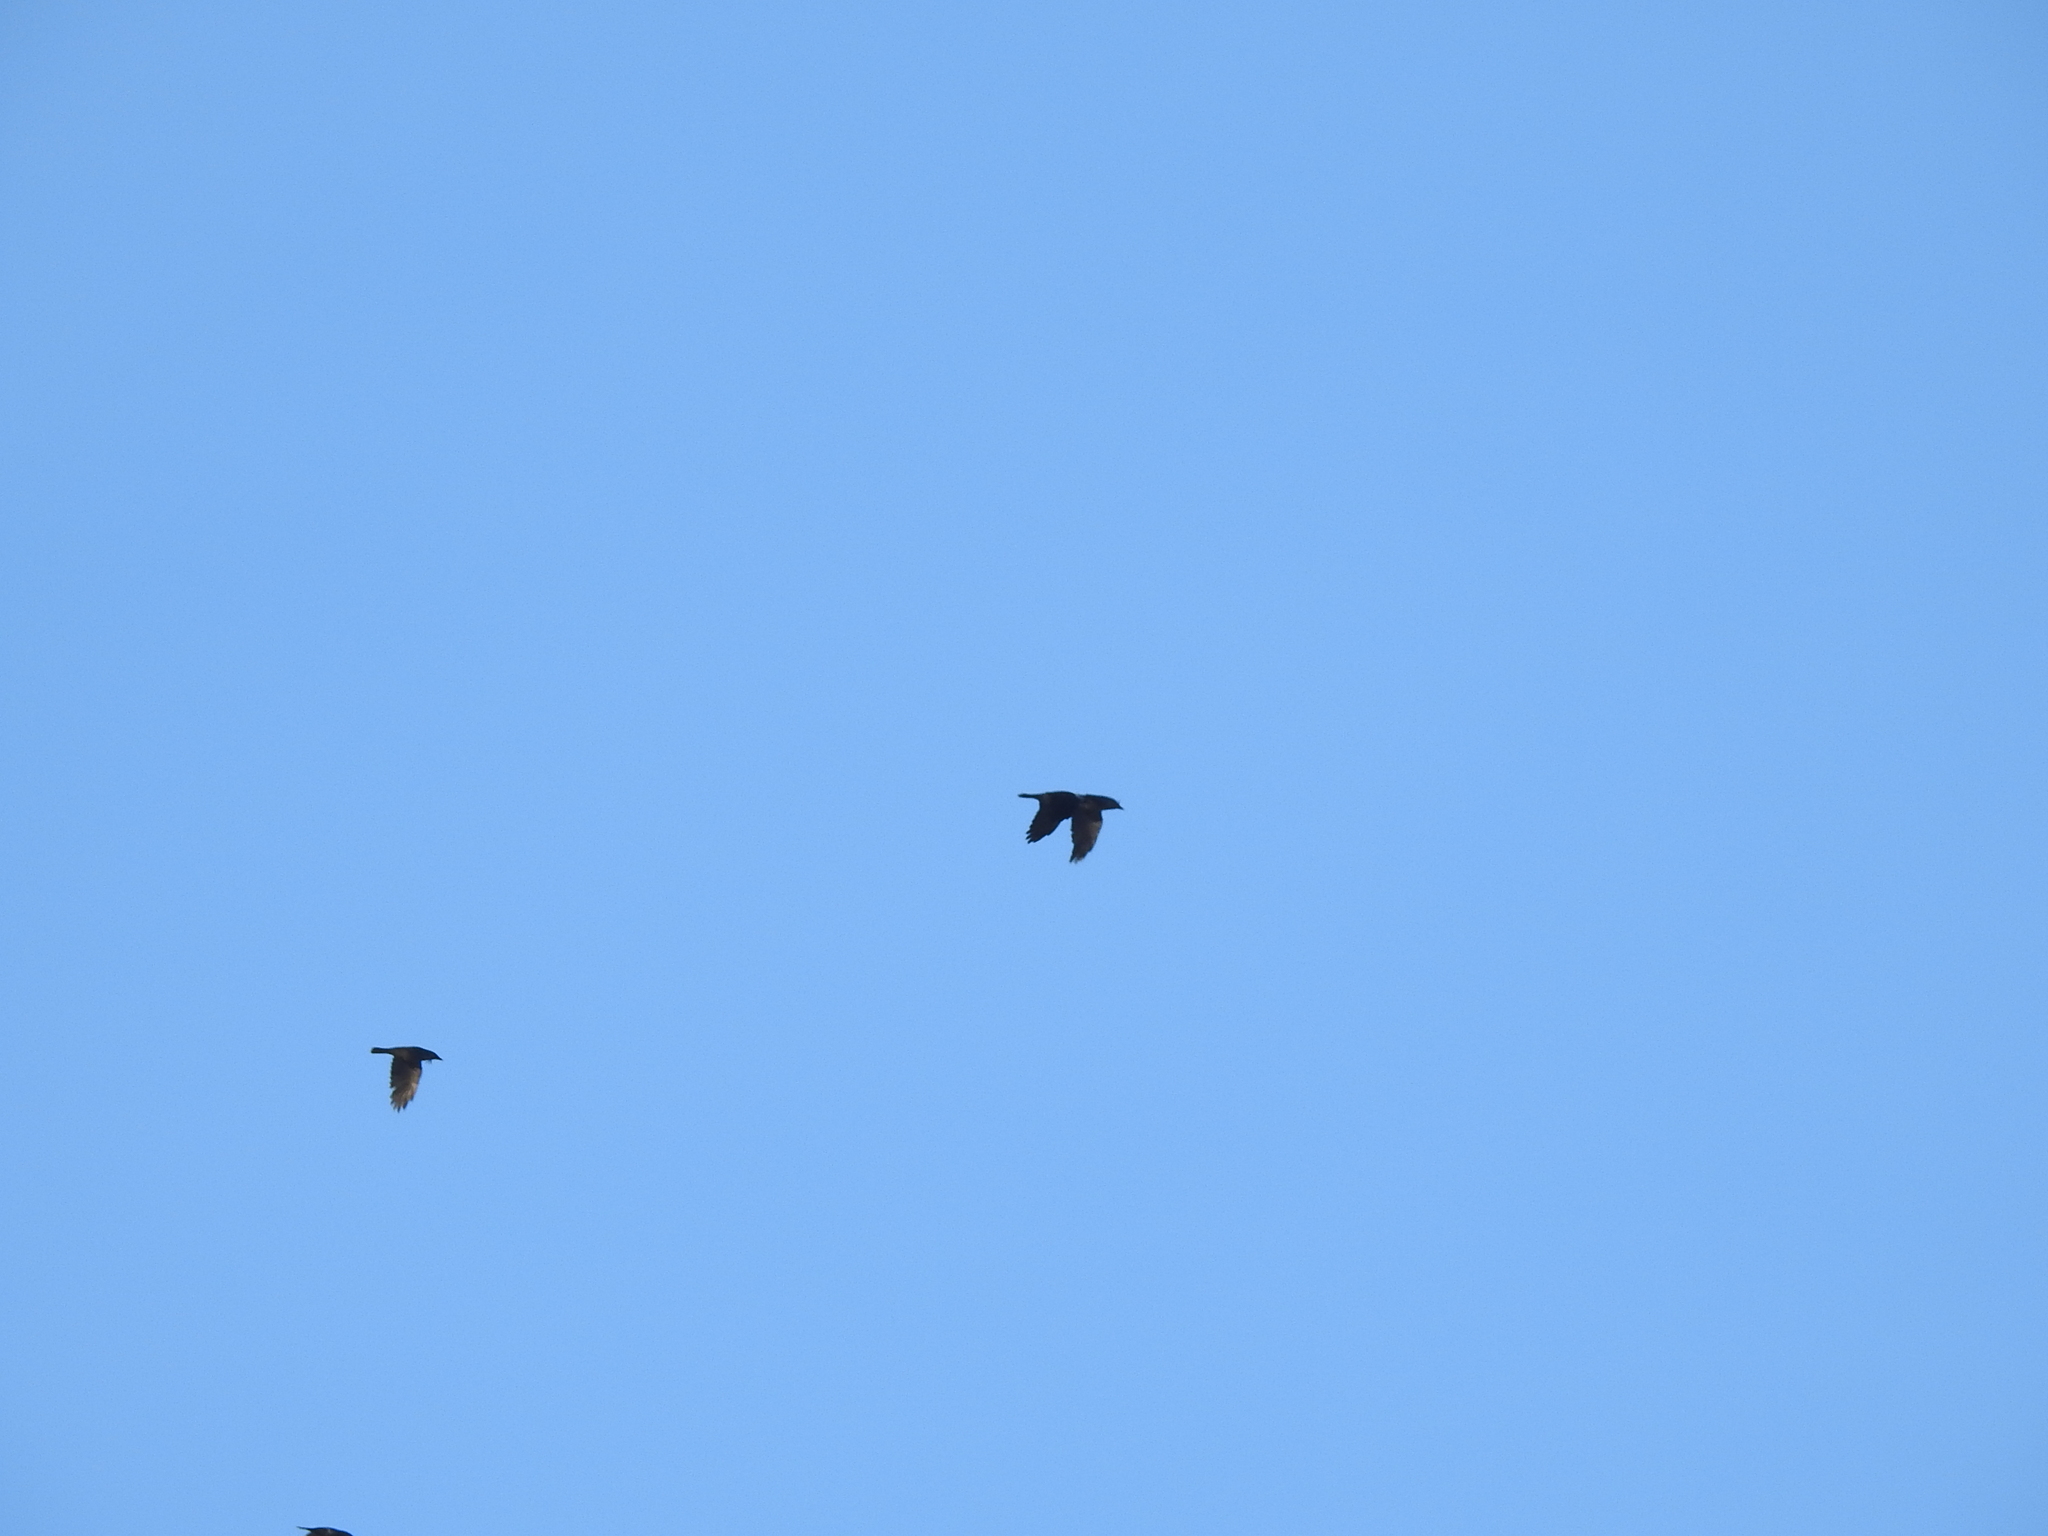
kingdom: Animalia
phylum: Chordata
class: Aves
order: Passeriformes
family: Corvidae
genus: Coloeus
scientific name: Coloeus monedula
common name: Western jackdaw
